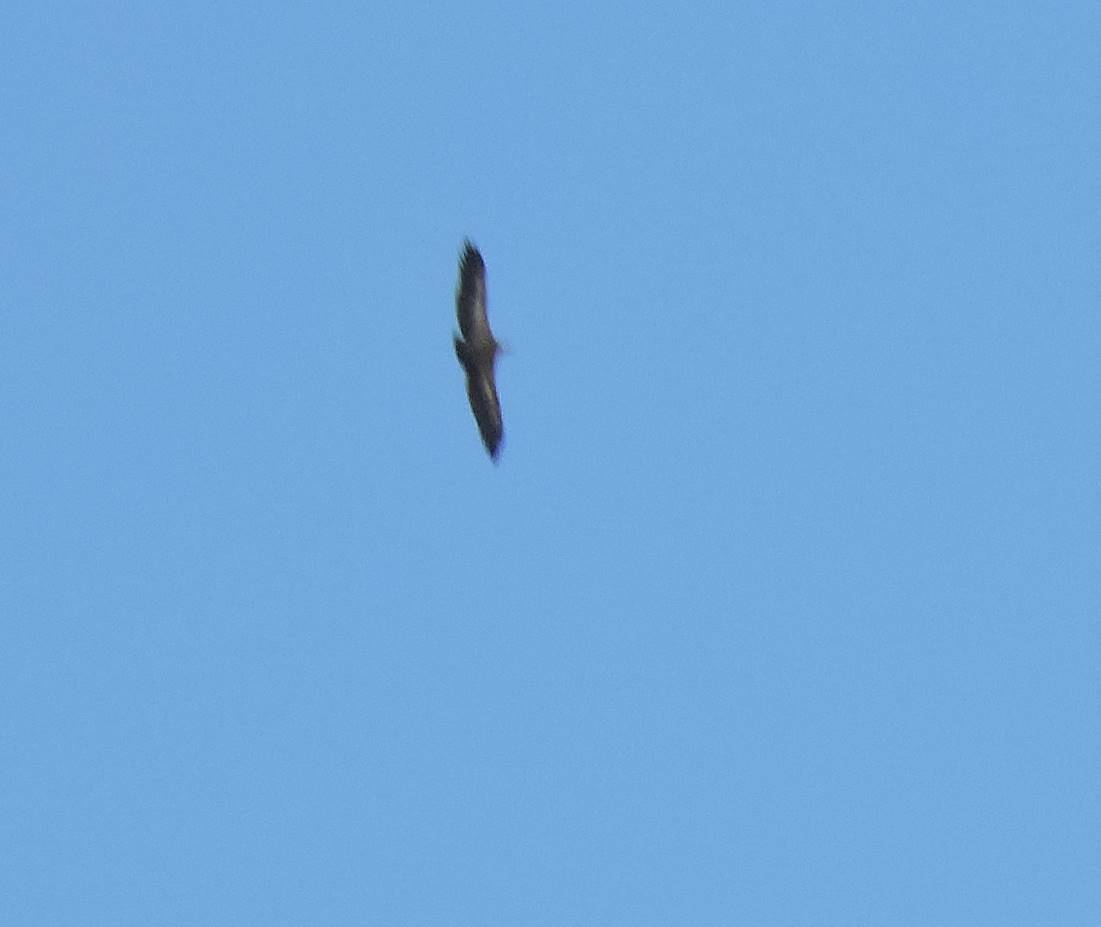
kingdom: Animalia
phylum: Chordata
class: Aves
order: Accipitriformes
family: Accipitridae
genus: Gyps
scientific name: Gyps fulvus
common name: Griffon vulture
